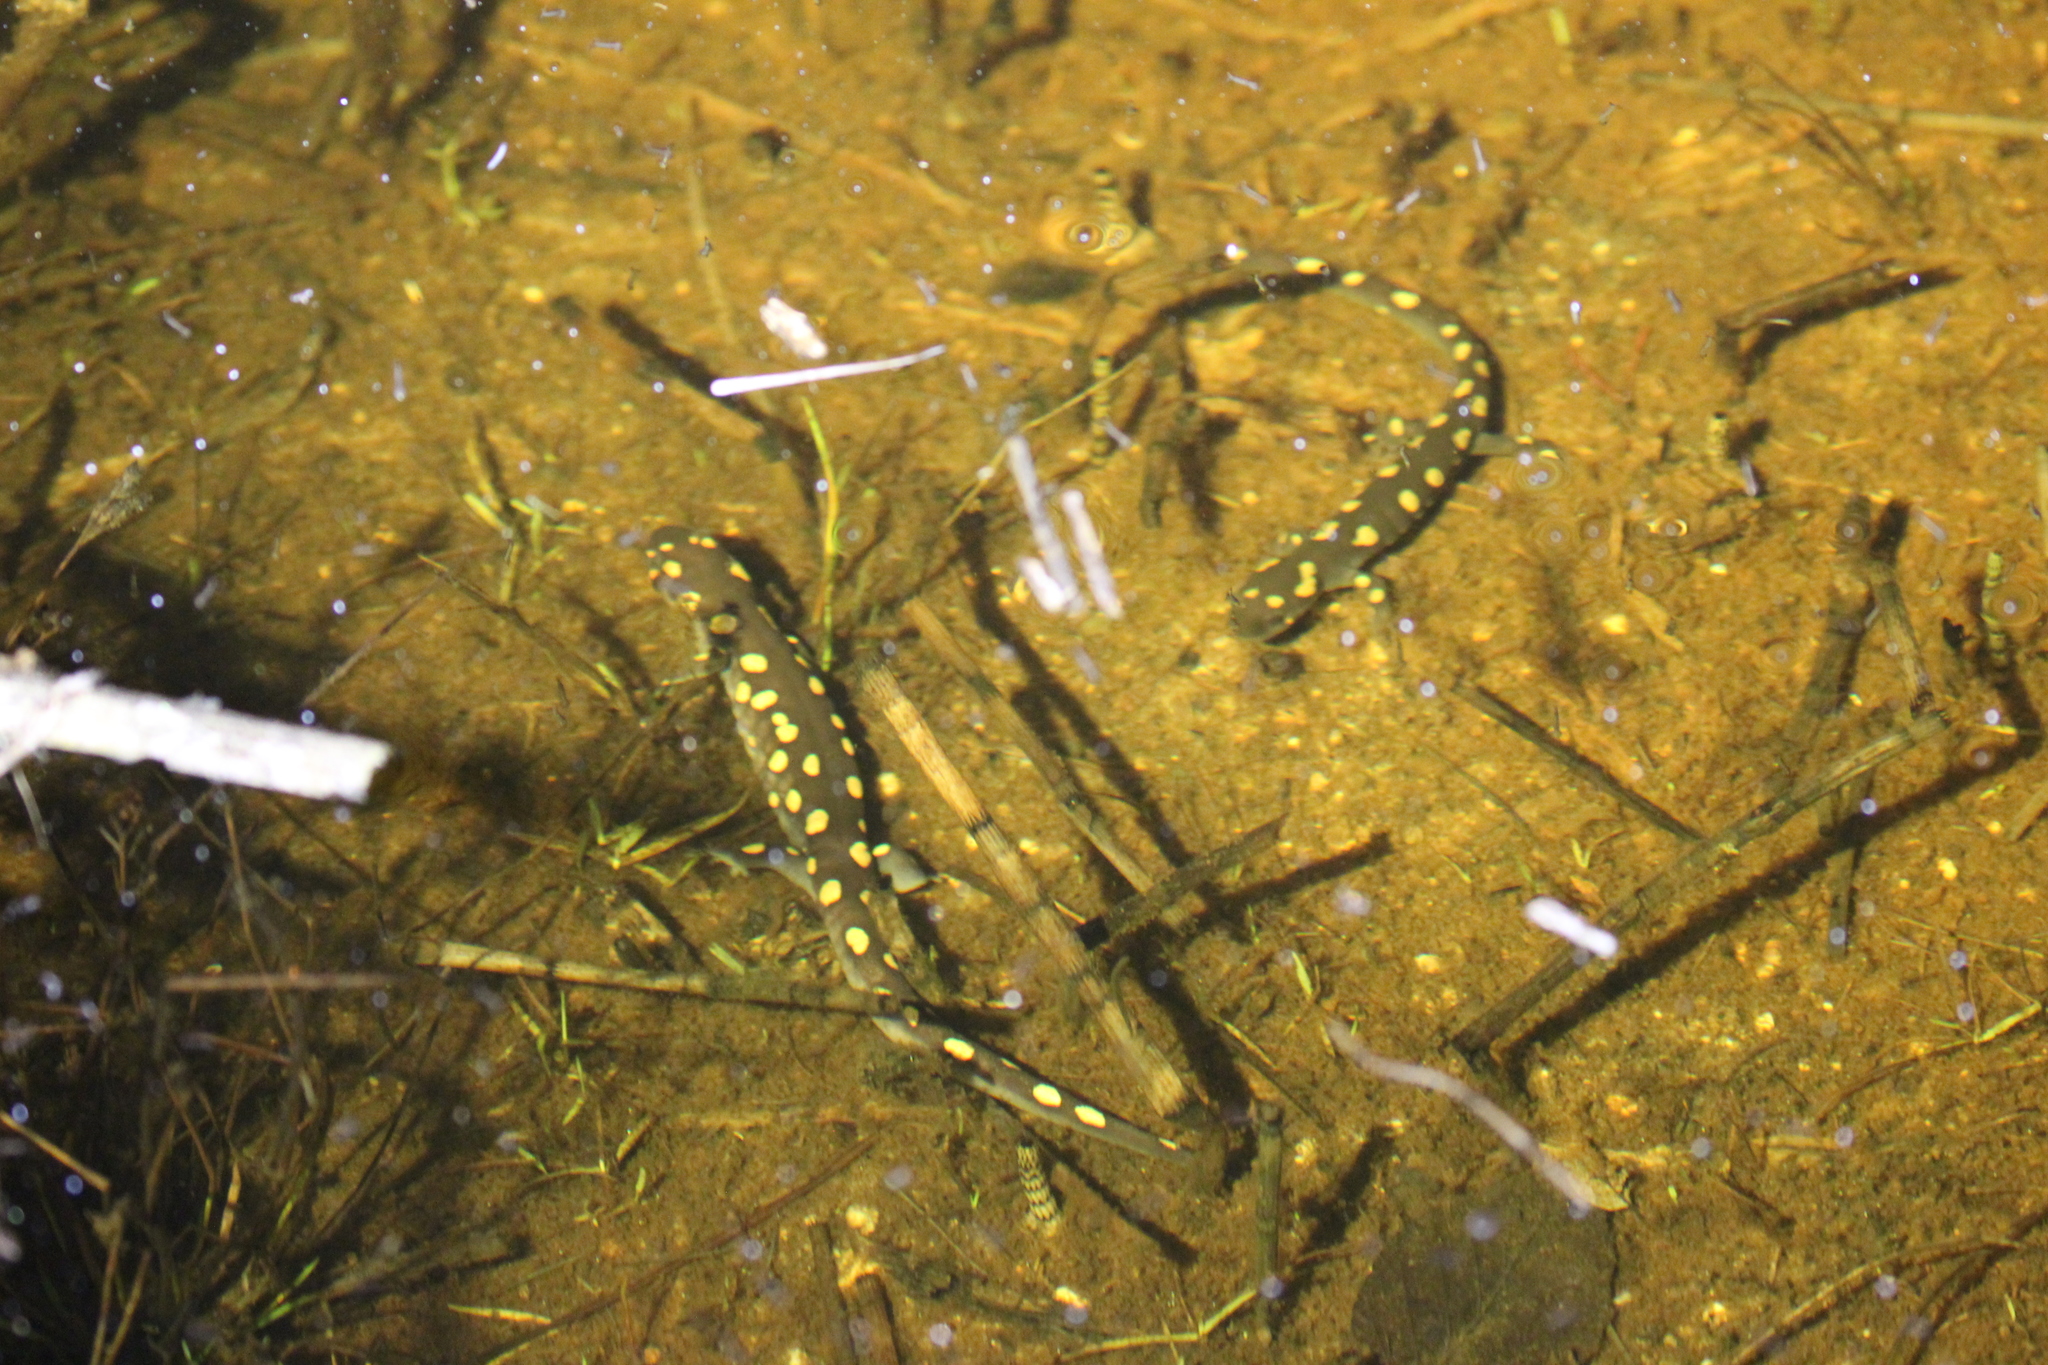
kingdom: Animalia
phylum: Chordata
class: Amphibia
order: Caudata
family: Ambystomatidae
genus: Ambystoma
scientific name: Ambystoma maculatum
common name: Spotted salamander
